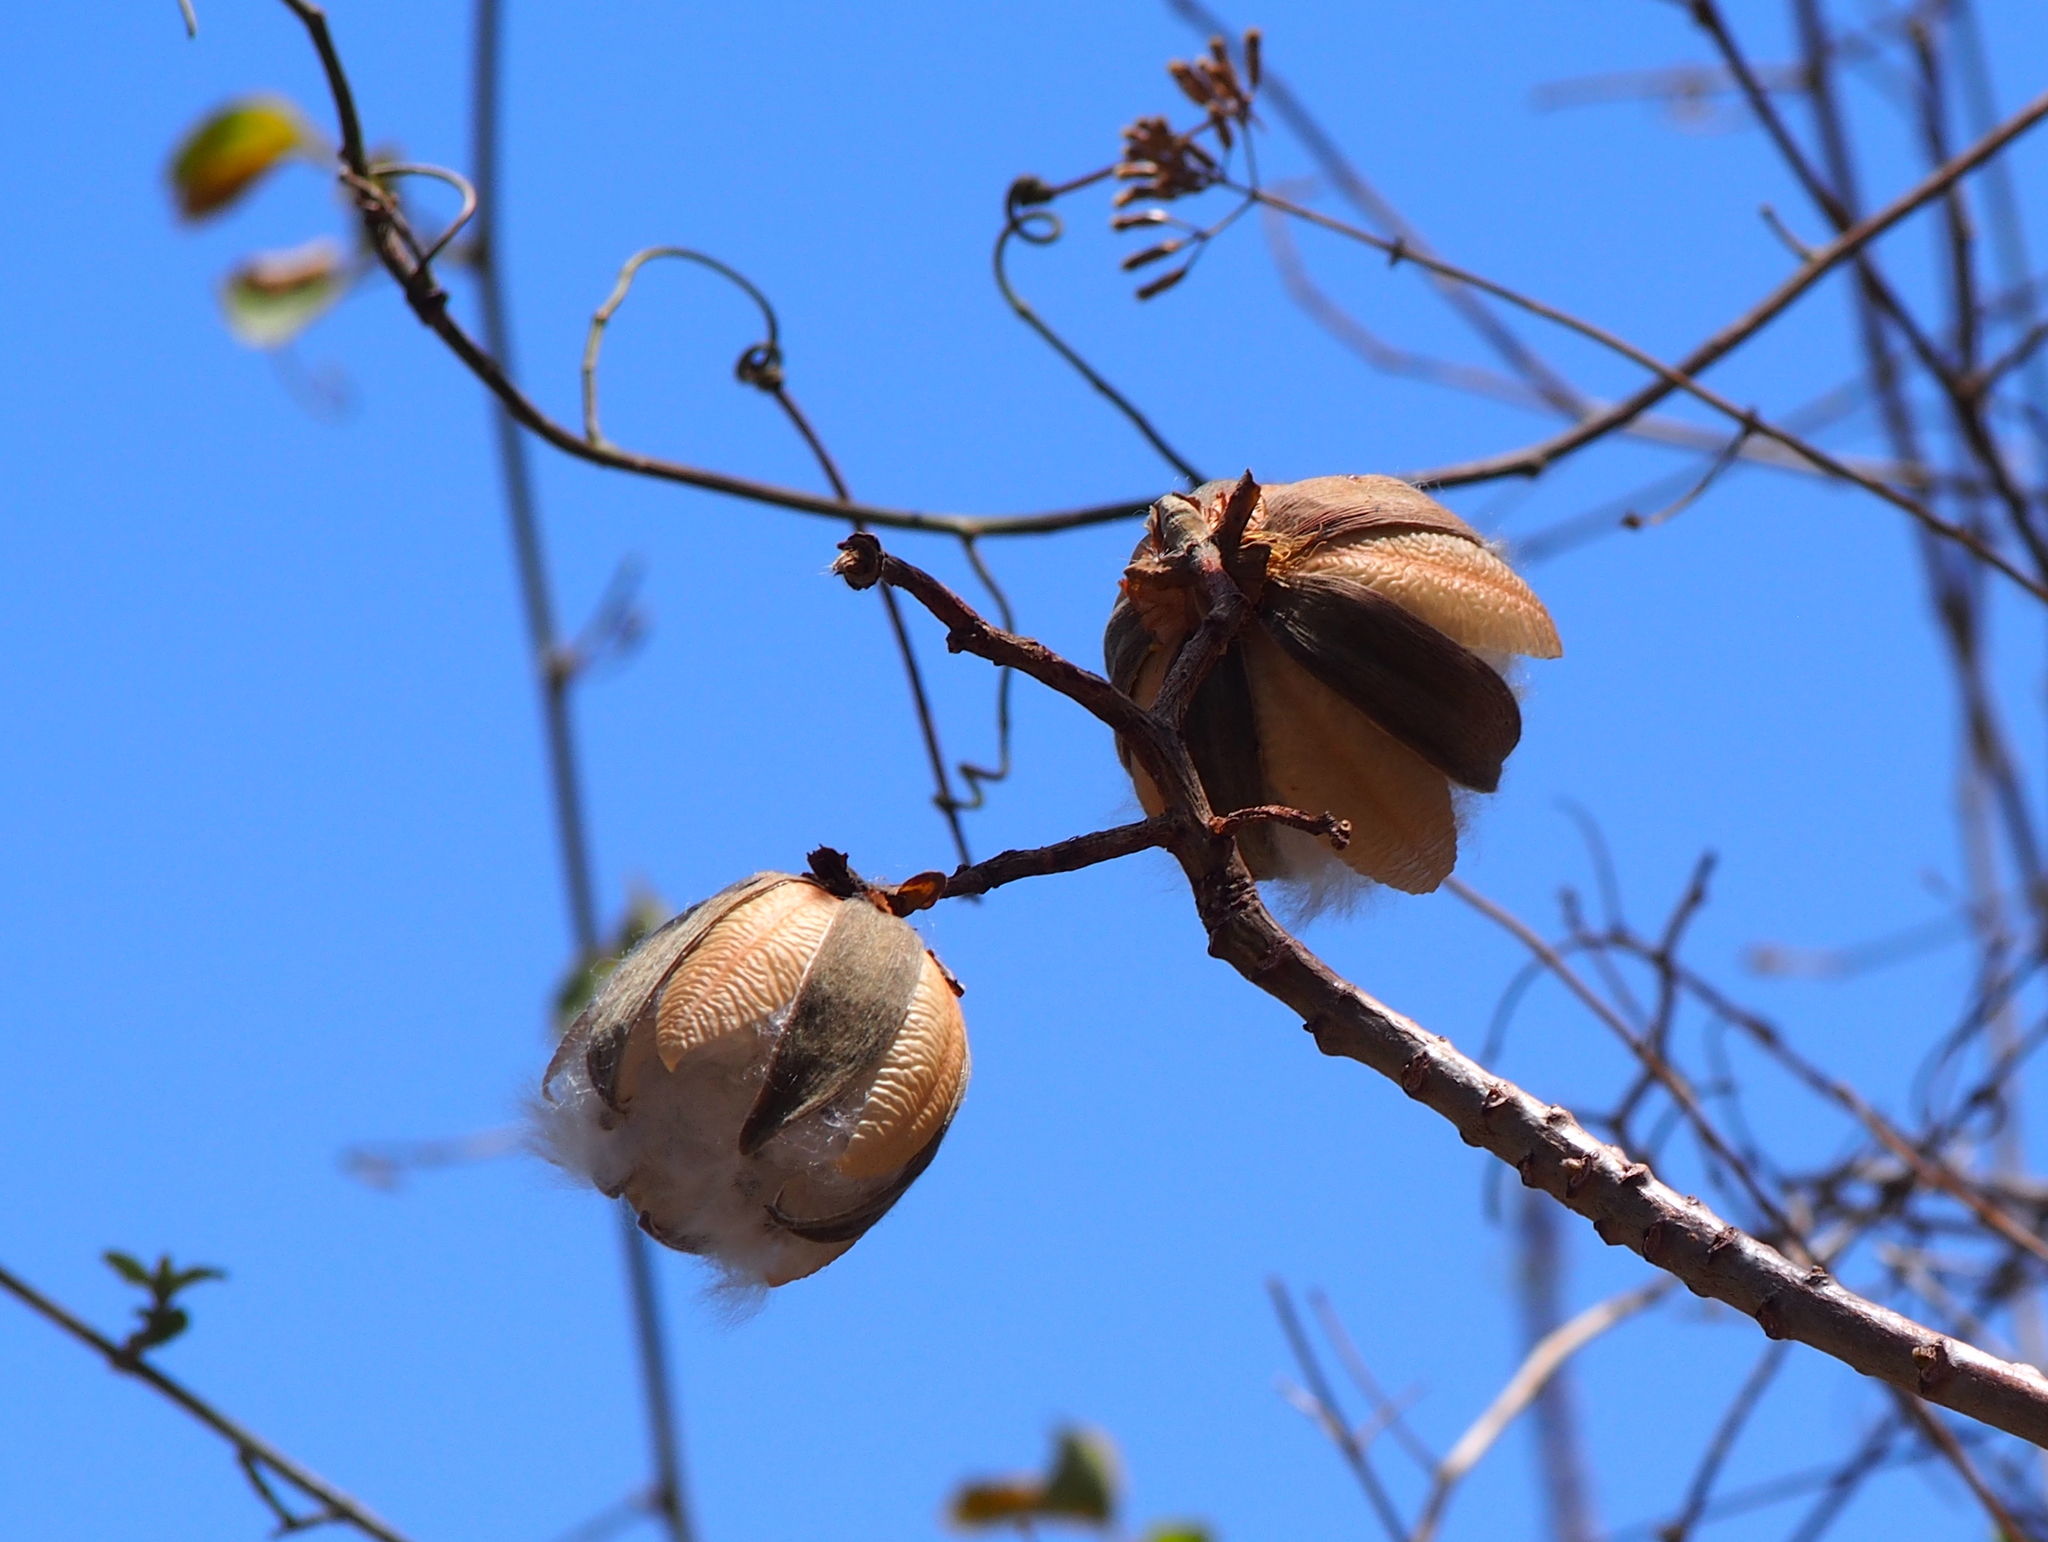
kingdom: Plantae
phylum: Tracheophyta
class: Magnoliopsida
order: Malvales
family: Cochlospermaceae
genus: Cochlospermum
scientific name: Cochlospermum vitifolium
